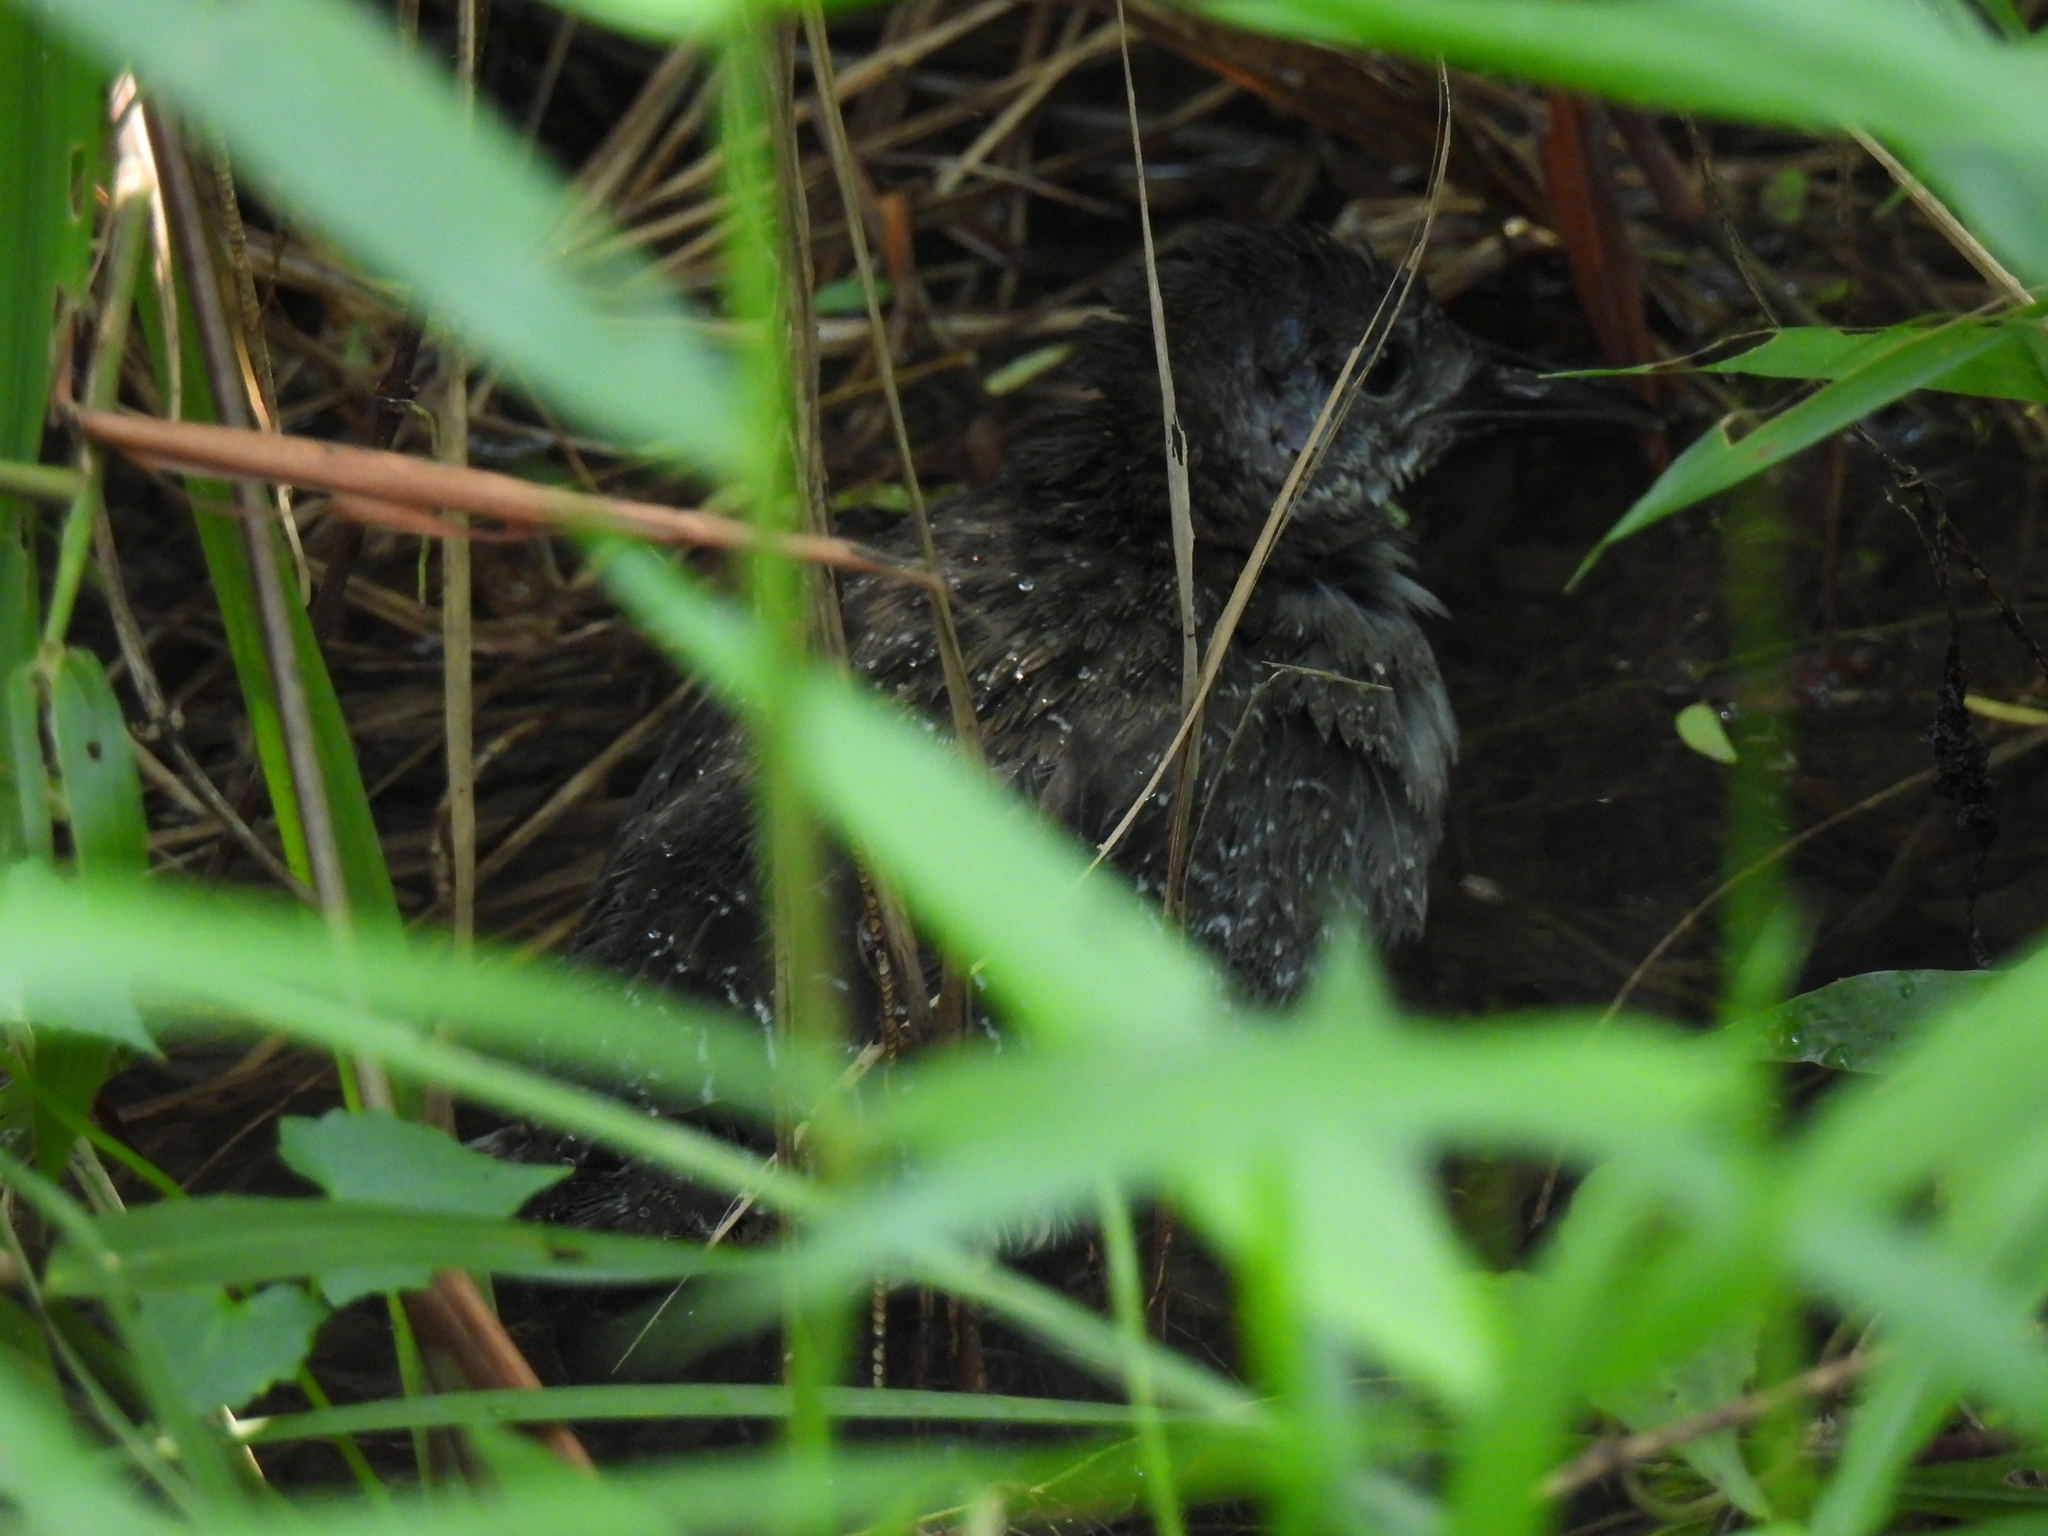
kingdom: Animalia
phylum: Chordata
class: Aves
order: Gruiformes
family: Rallidae
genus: Gallirallus
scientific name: Gallirallus striatus
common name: Slaty-breasted rail
